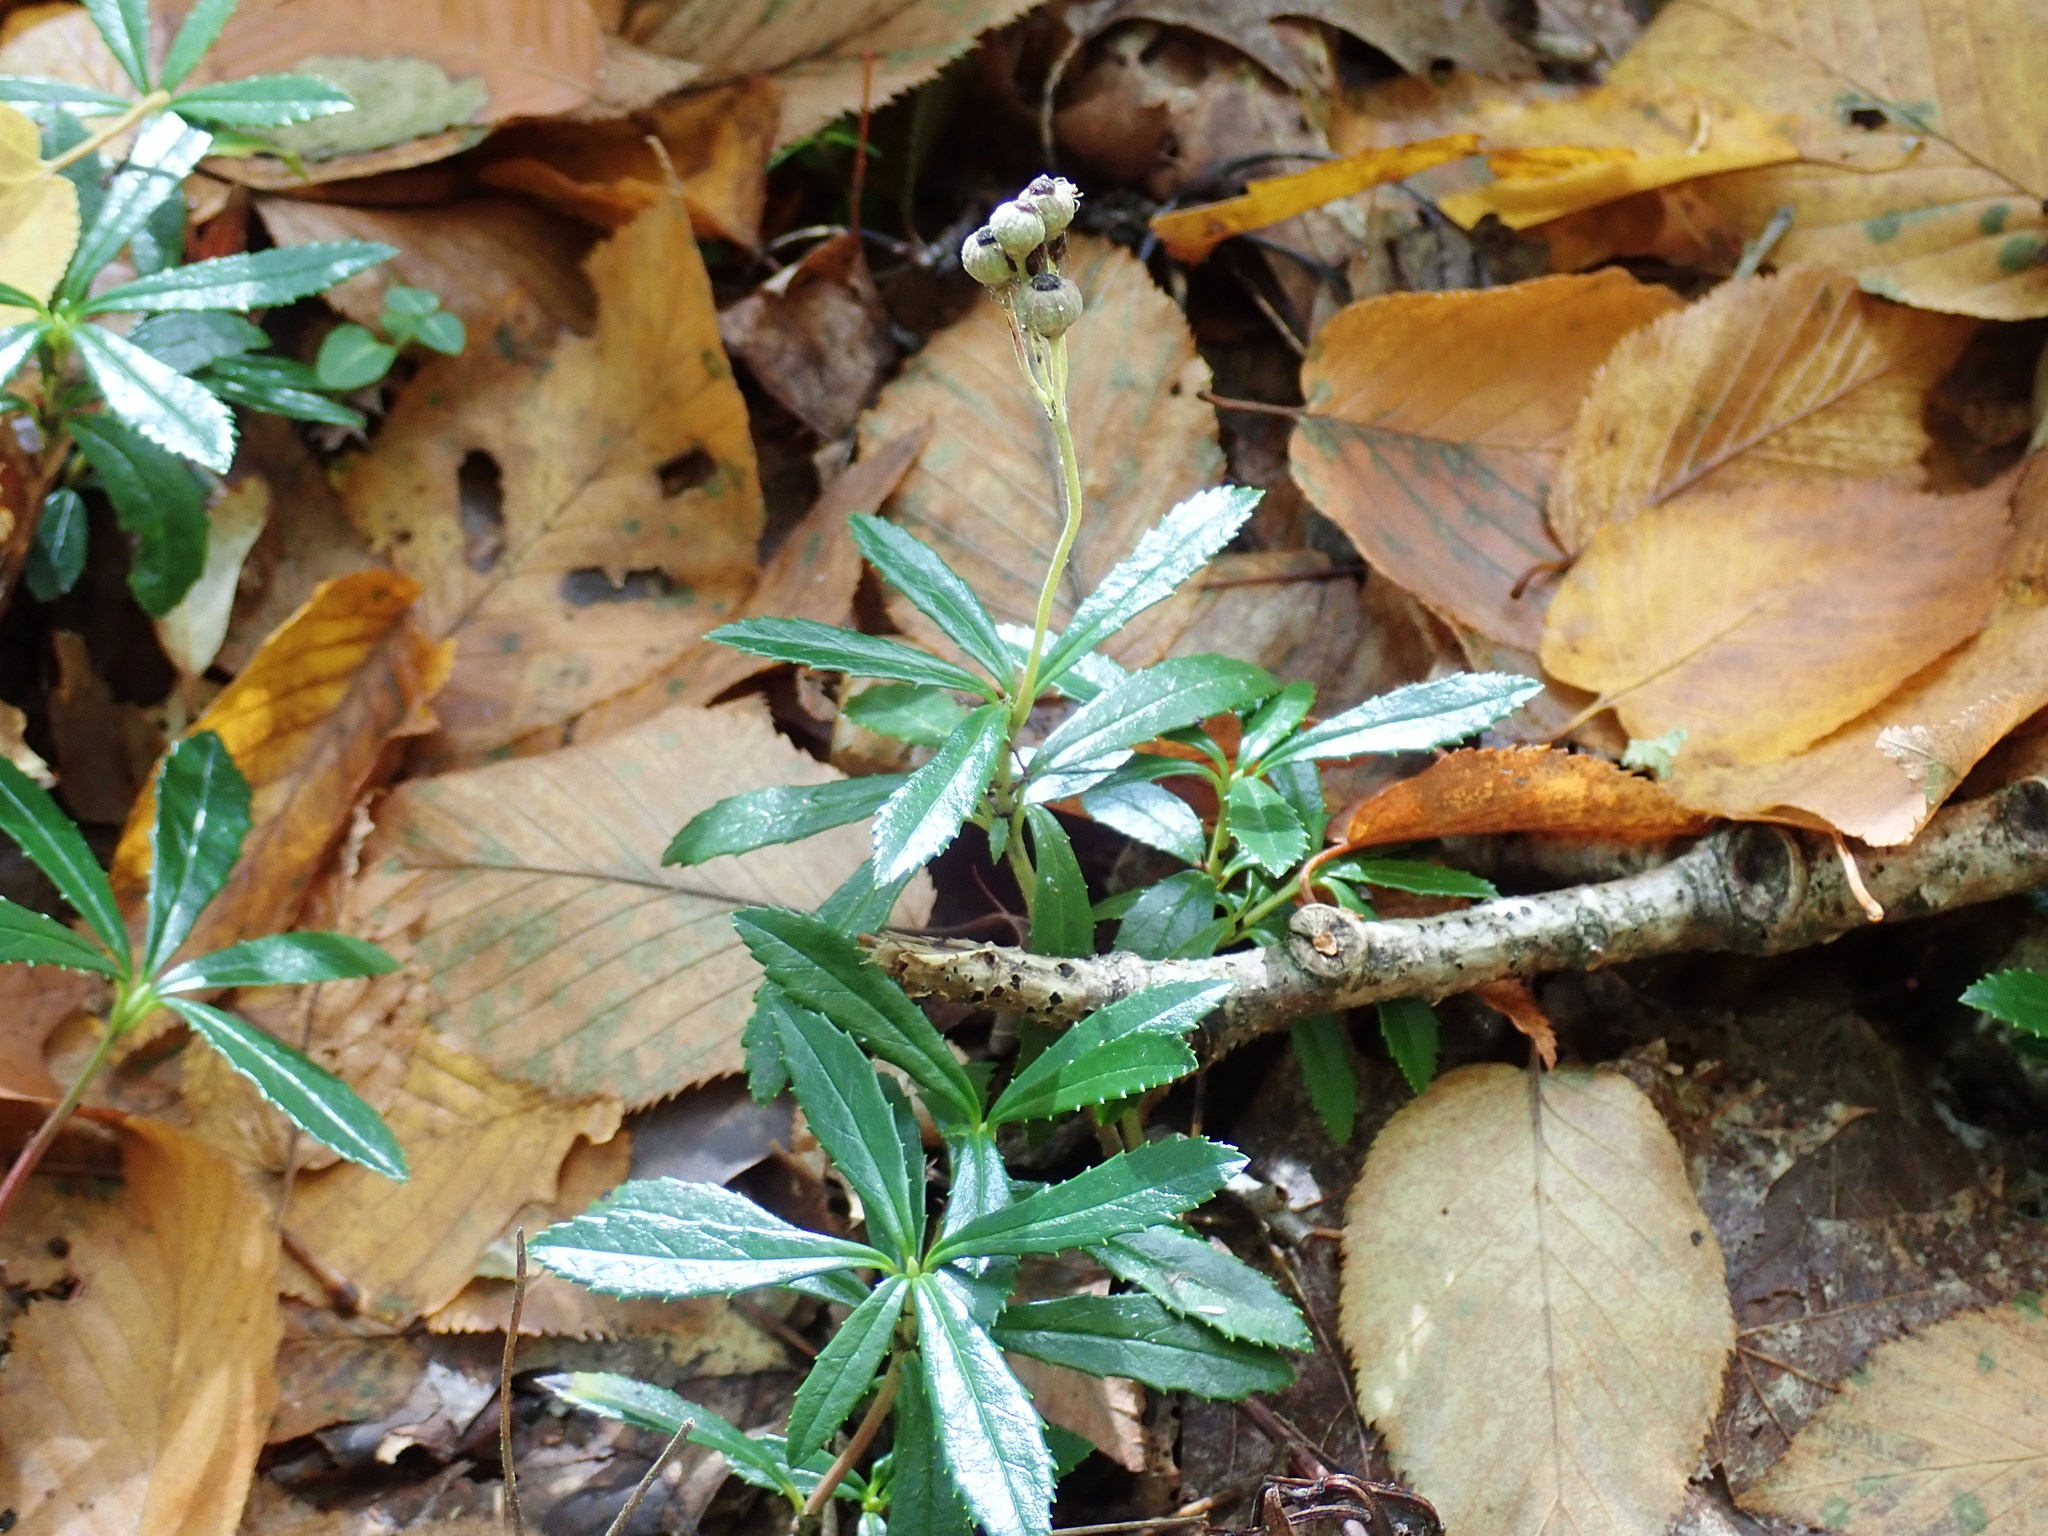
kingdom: Plantae
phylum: Tracheophyta
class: Magnoliopsida
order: Ericales
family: Ericaceae
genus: Chimaphila
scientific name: Chimaphila umbellata
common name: Pipsissewa
